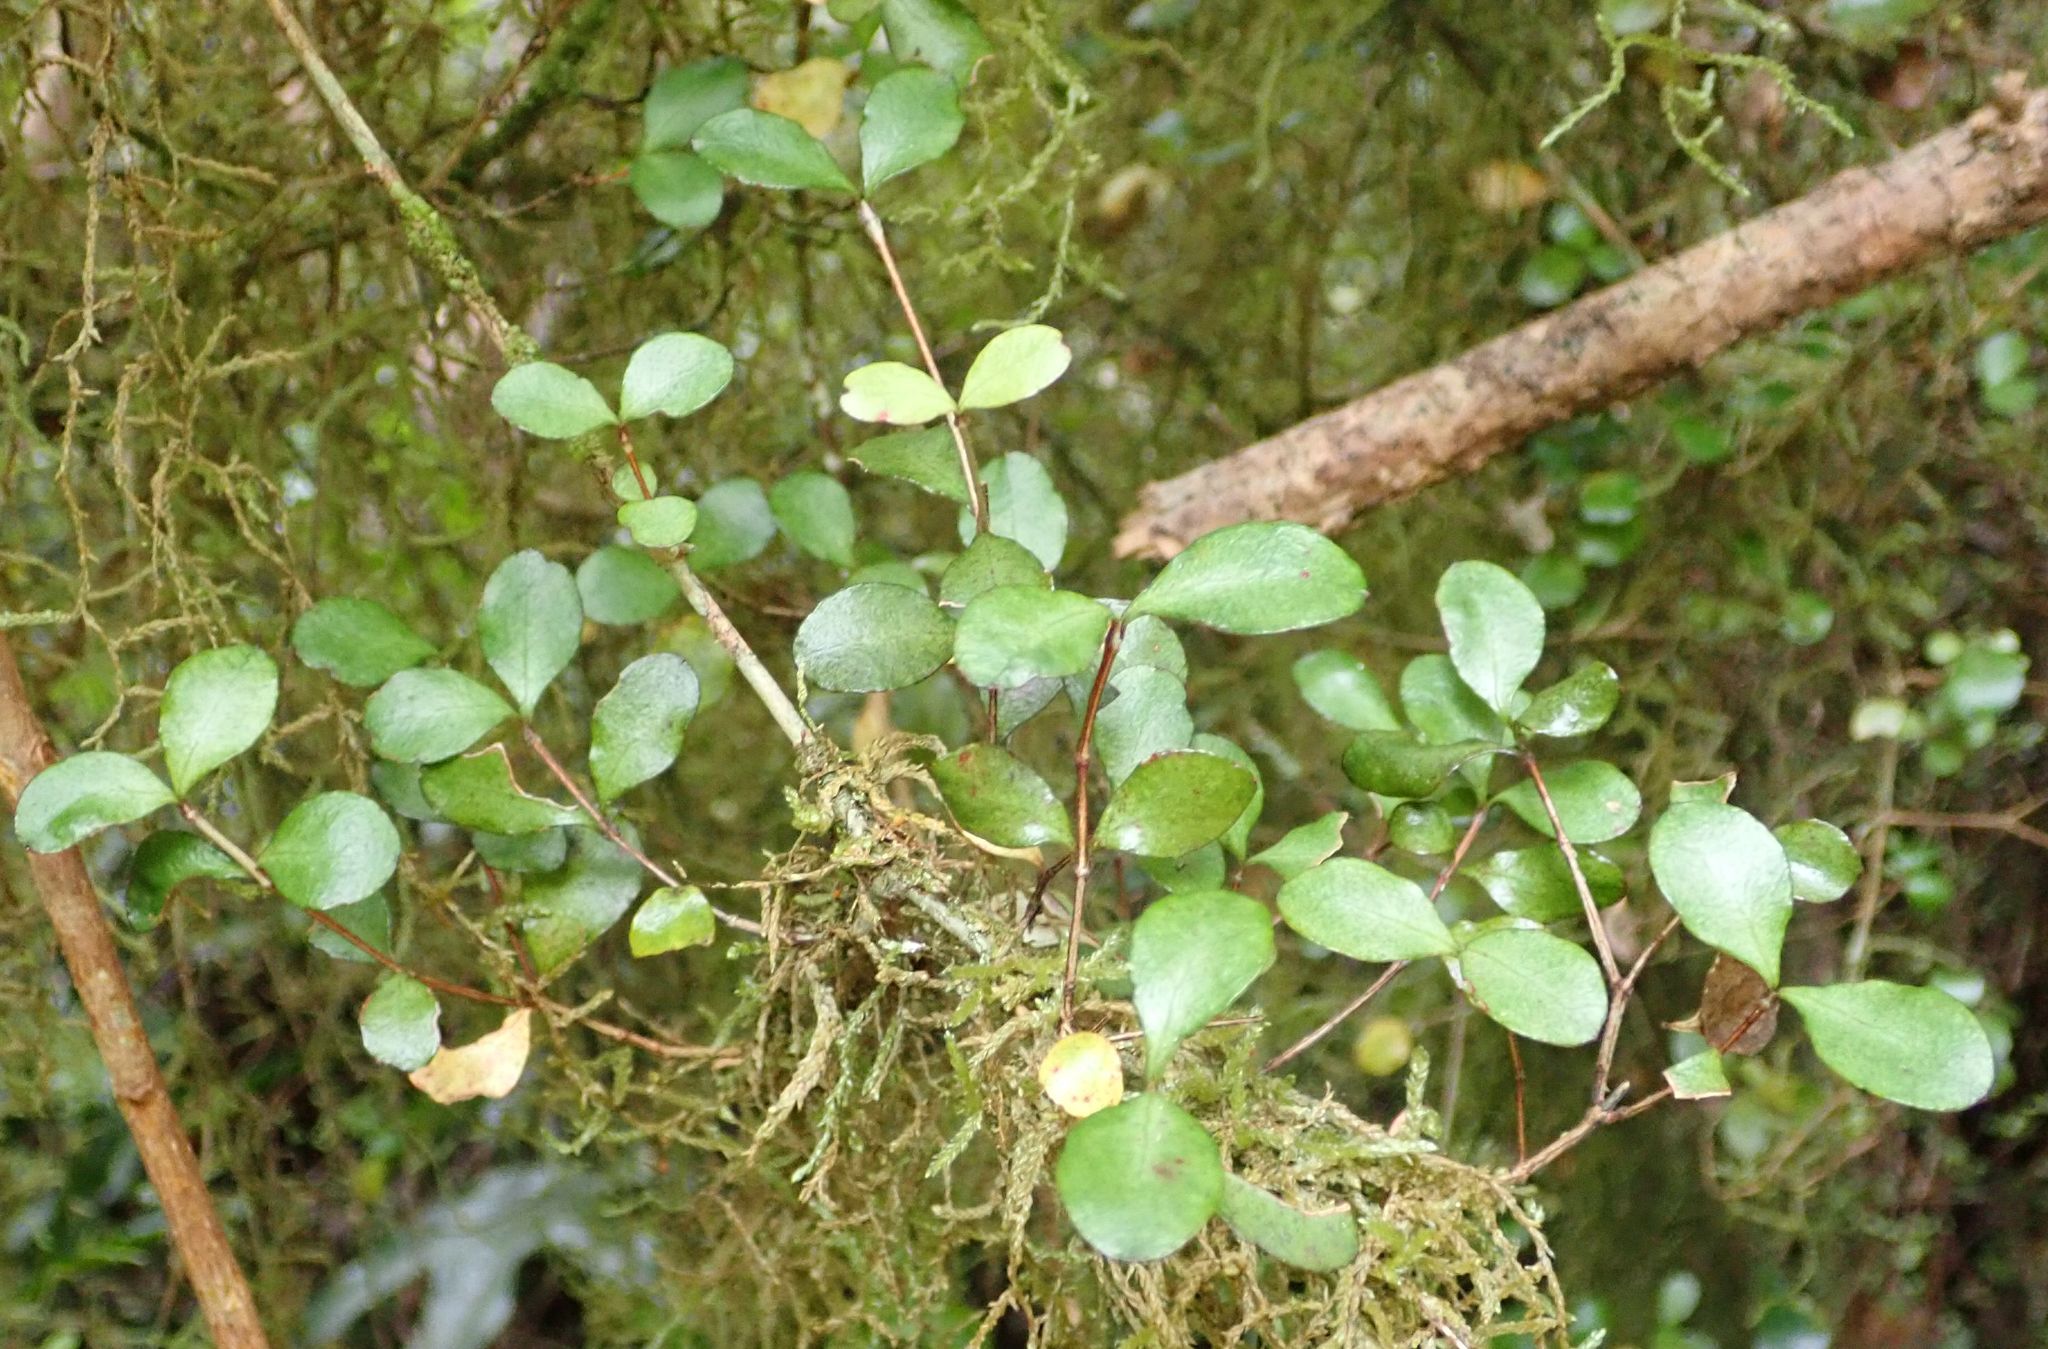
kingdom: Plantae
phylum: Tracheophyta
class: Magnoliopsida
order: Myrtales
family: Myrtaceae
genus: Neomyrtus
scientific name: Neomyrtus pedunculata
